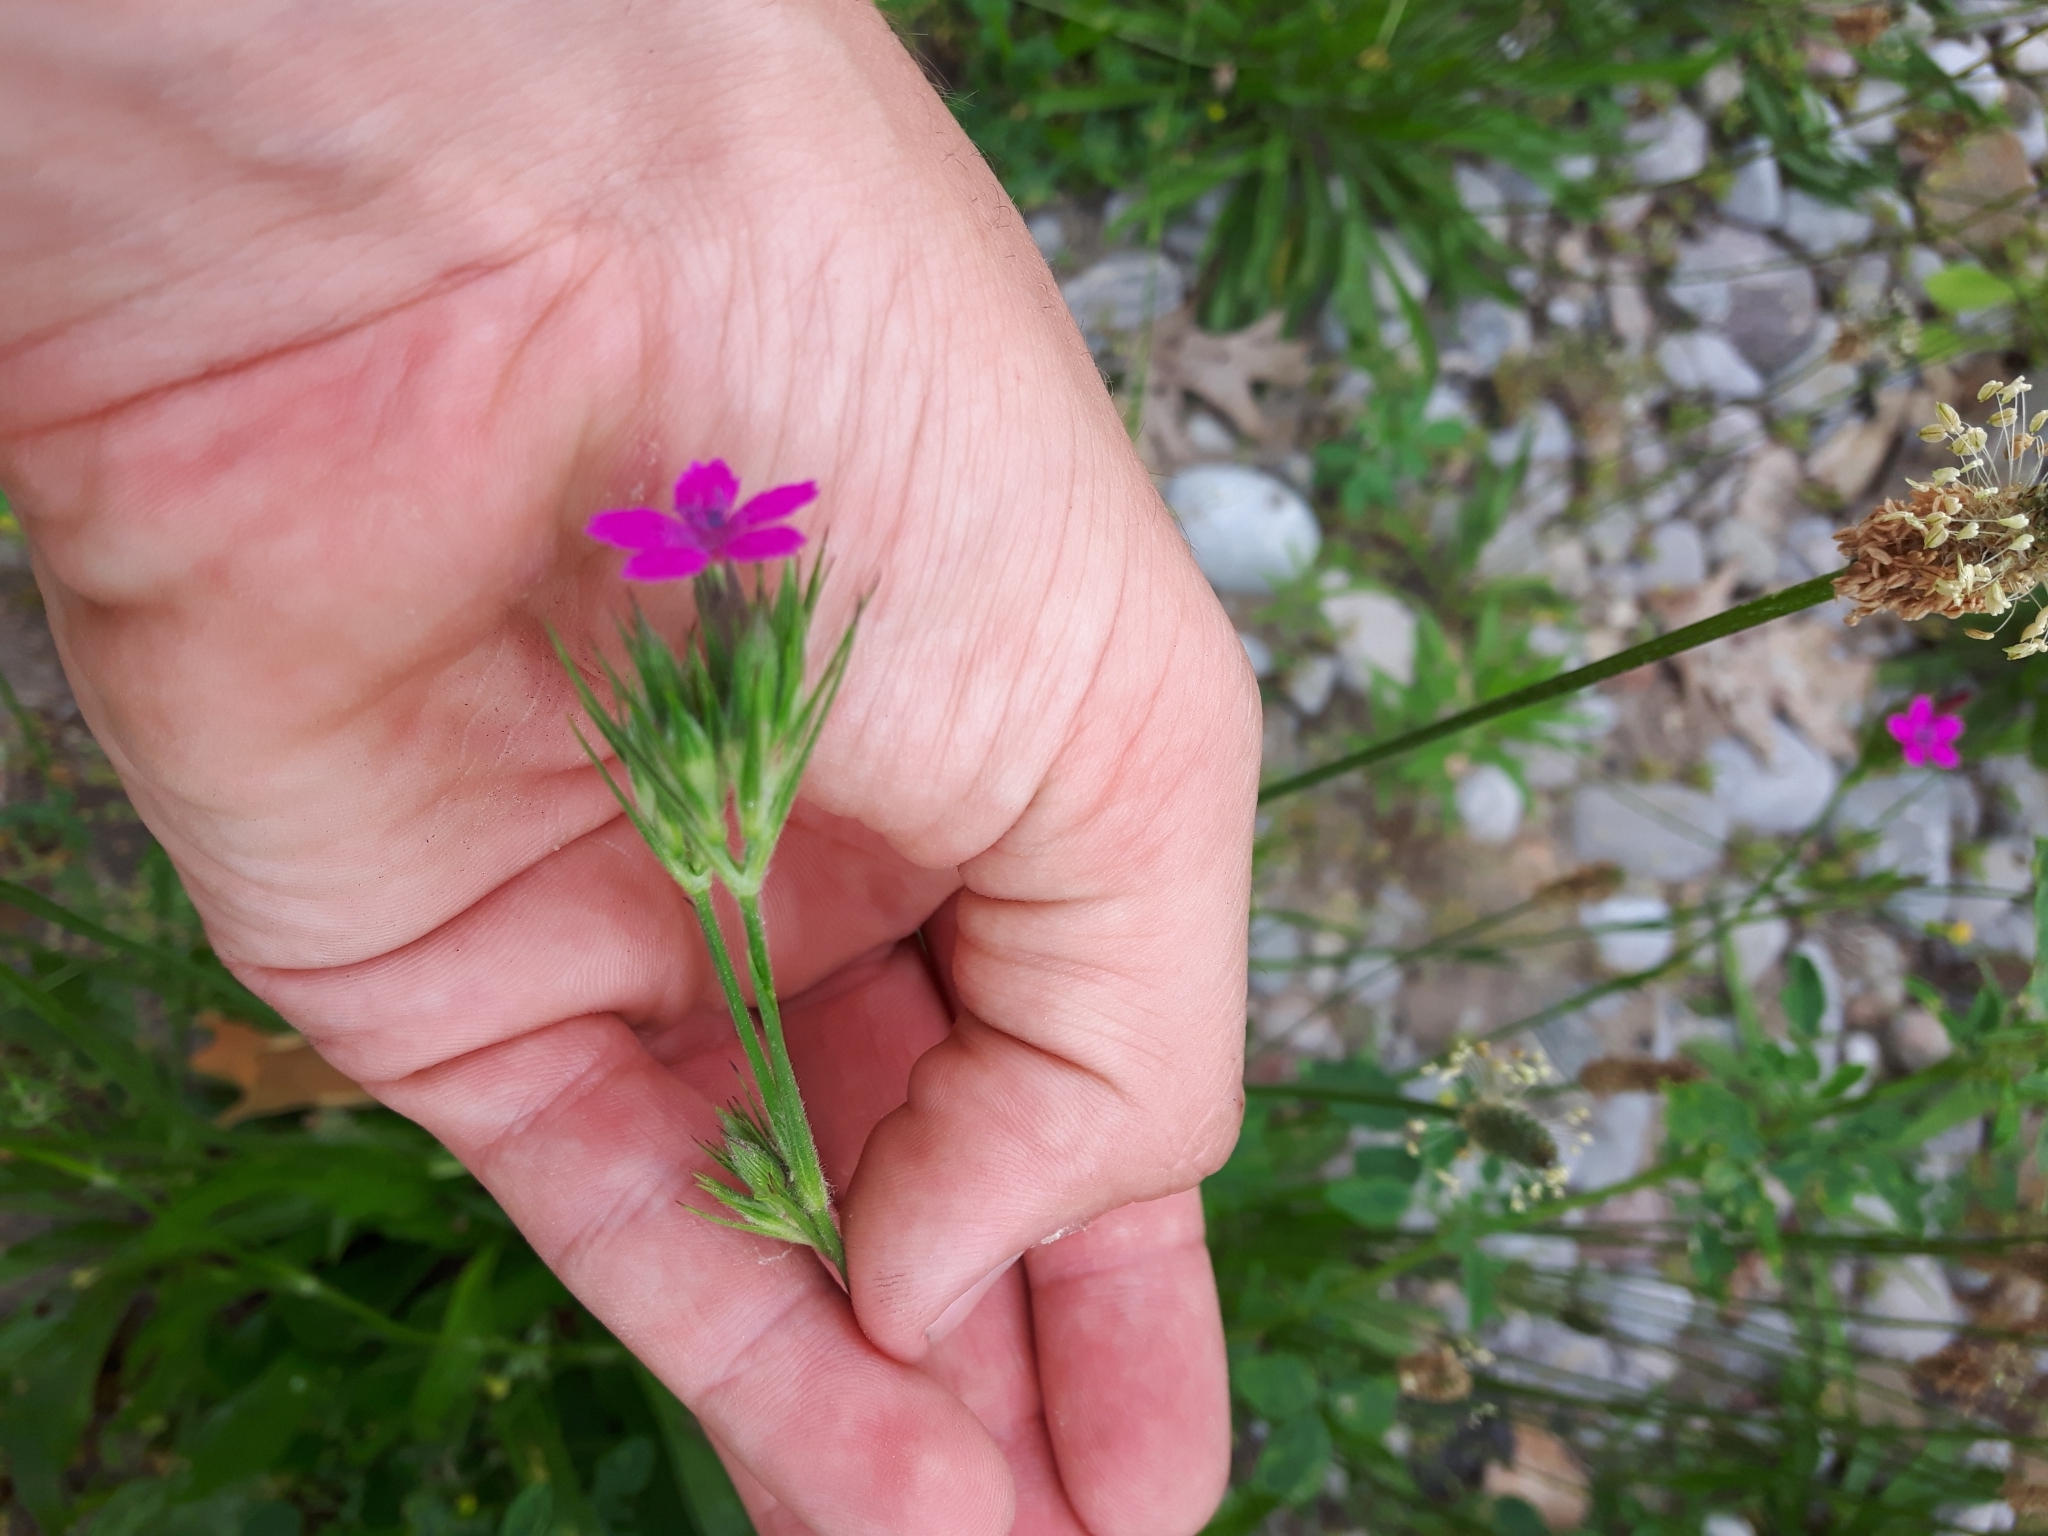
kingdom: Plantae
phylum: Tracheophyta
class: Magnoliopsida
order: Caryophyllales
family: Caryophyllaceae
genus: Dianthus
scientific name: Dianthus armeria
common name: Deptford pink
